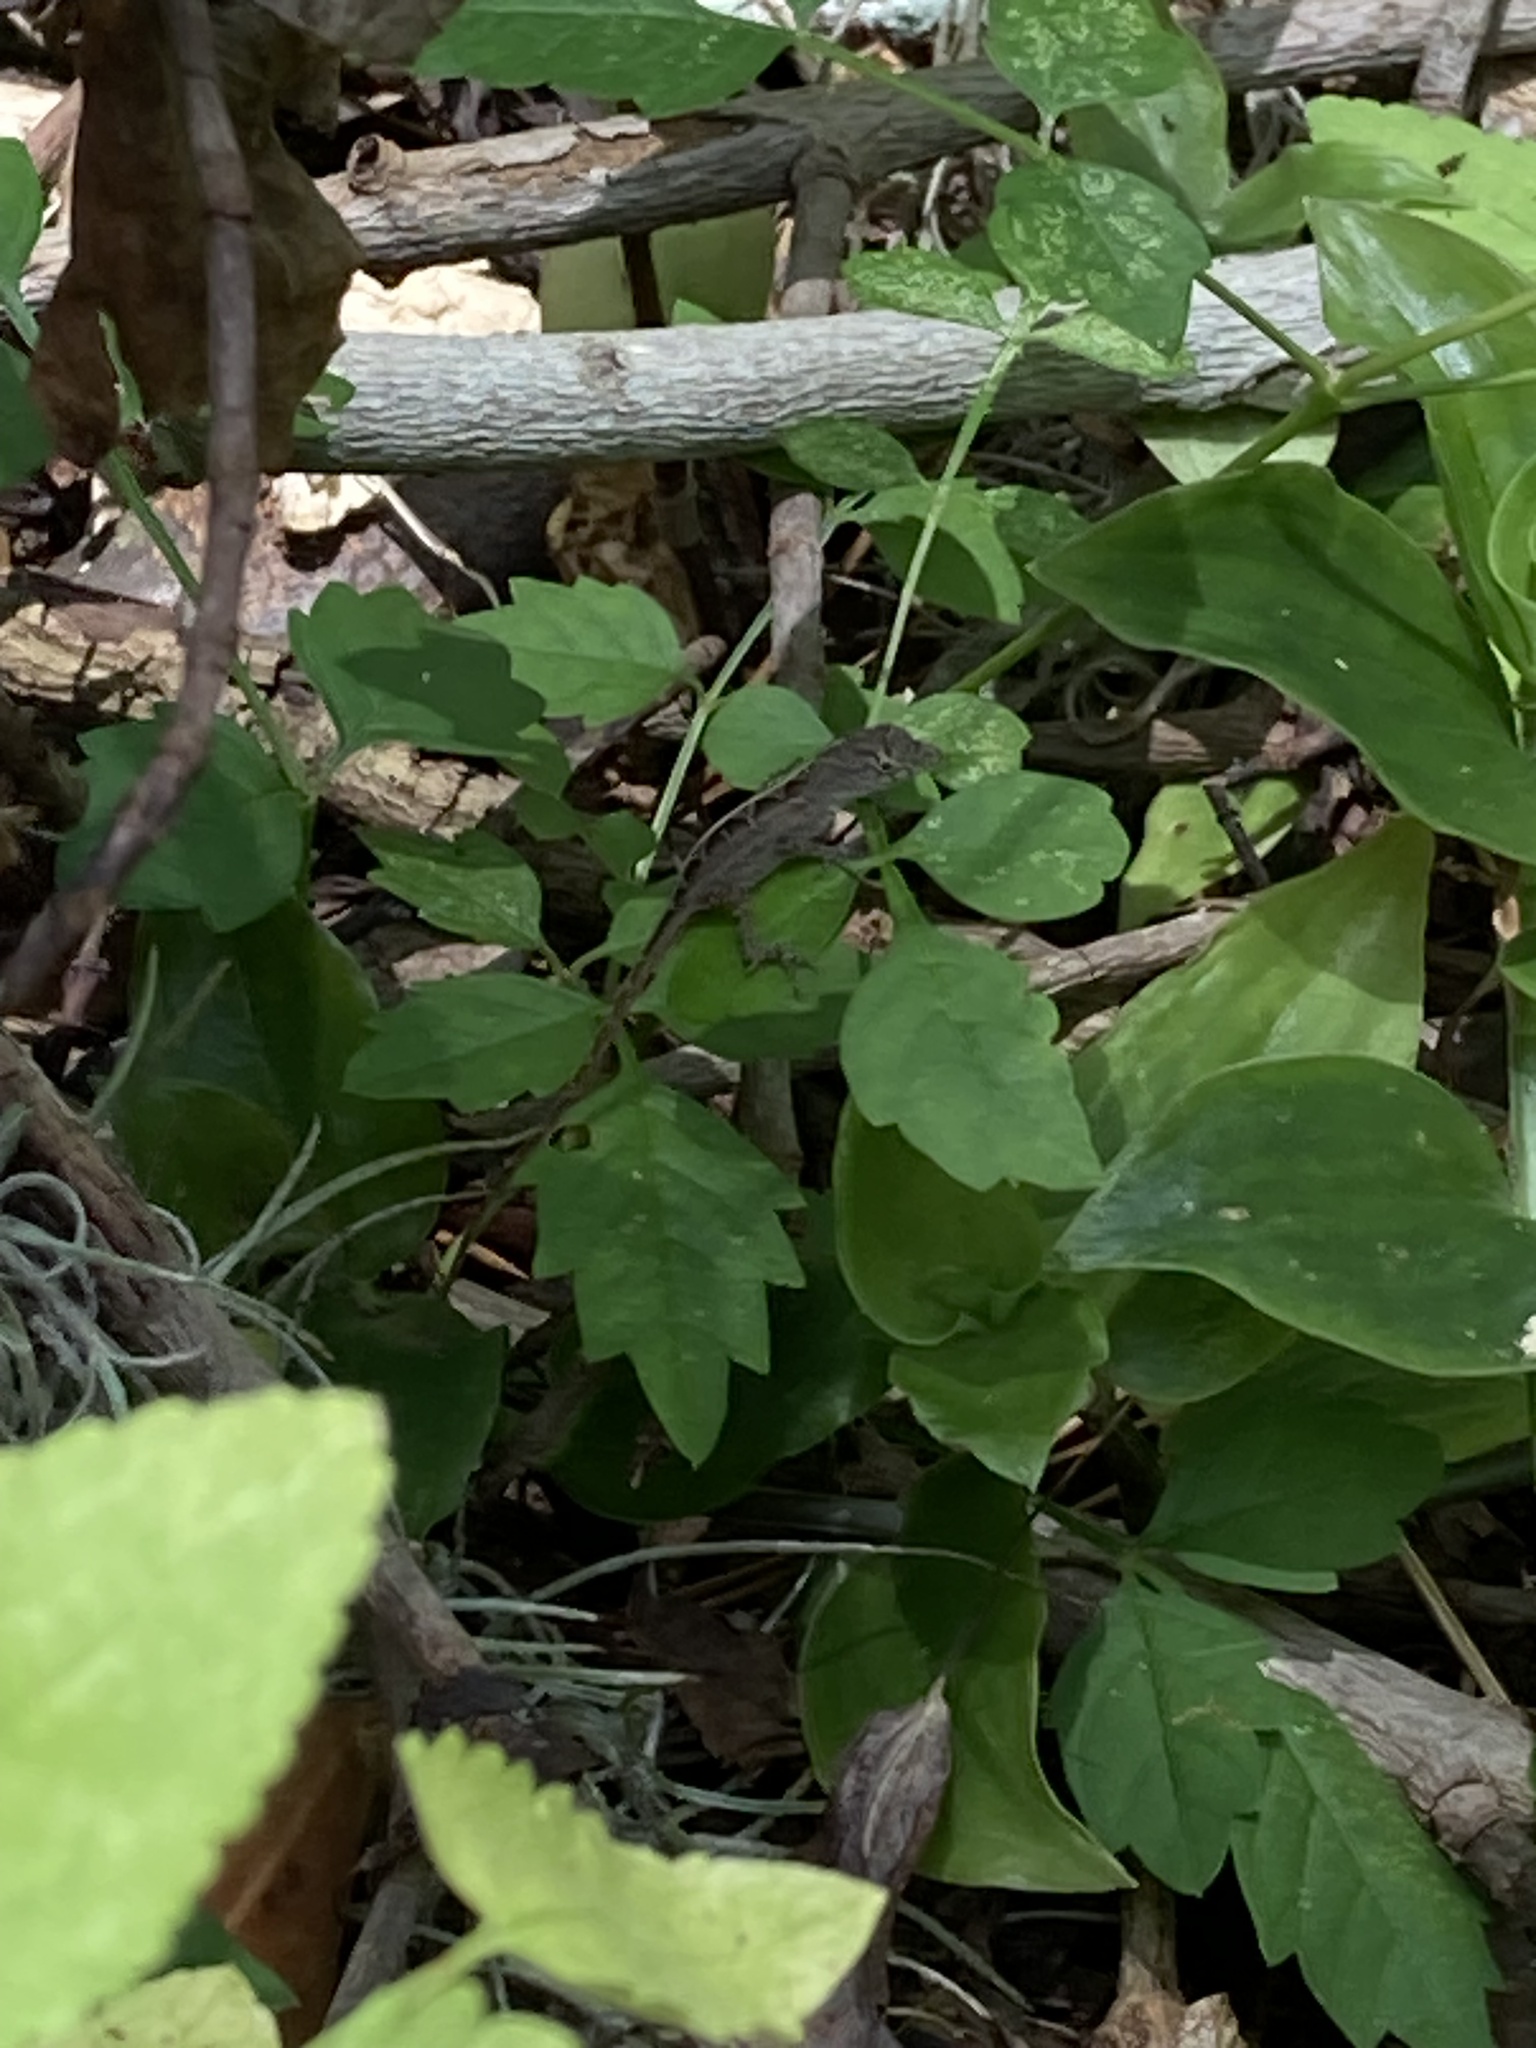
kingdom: Animalia
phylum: Chordata
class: Squamata
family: Dactyloidae
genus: Anolis
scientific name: Anolis sagrei
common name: Brown anole
